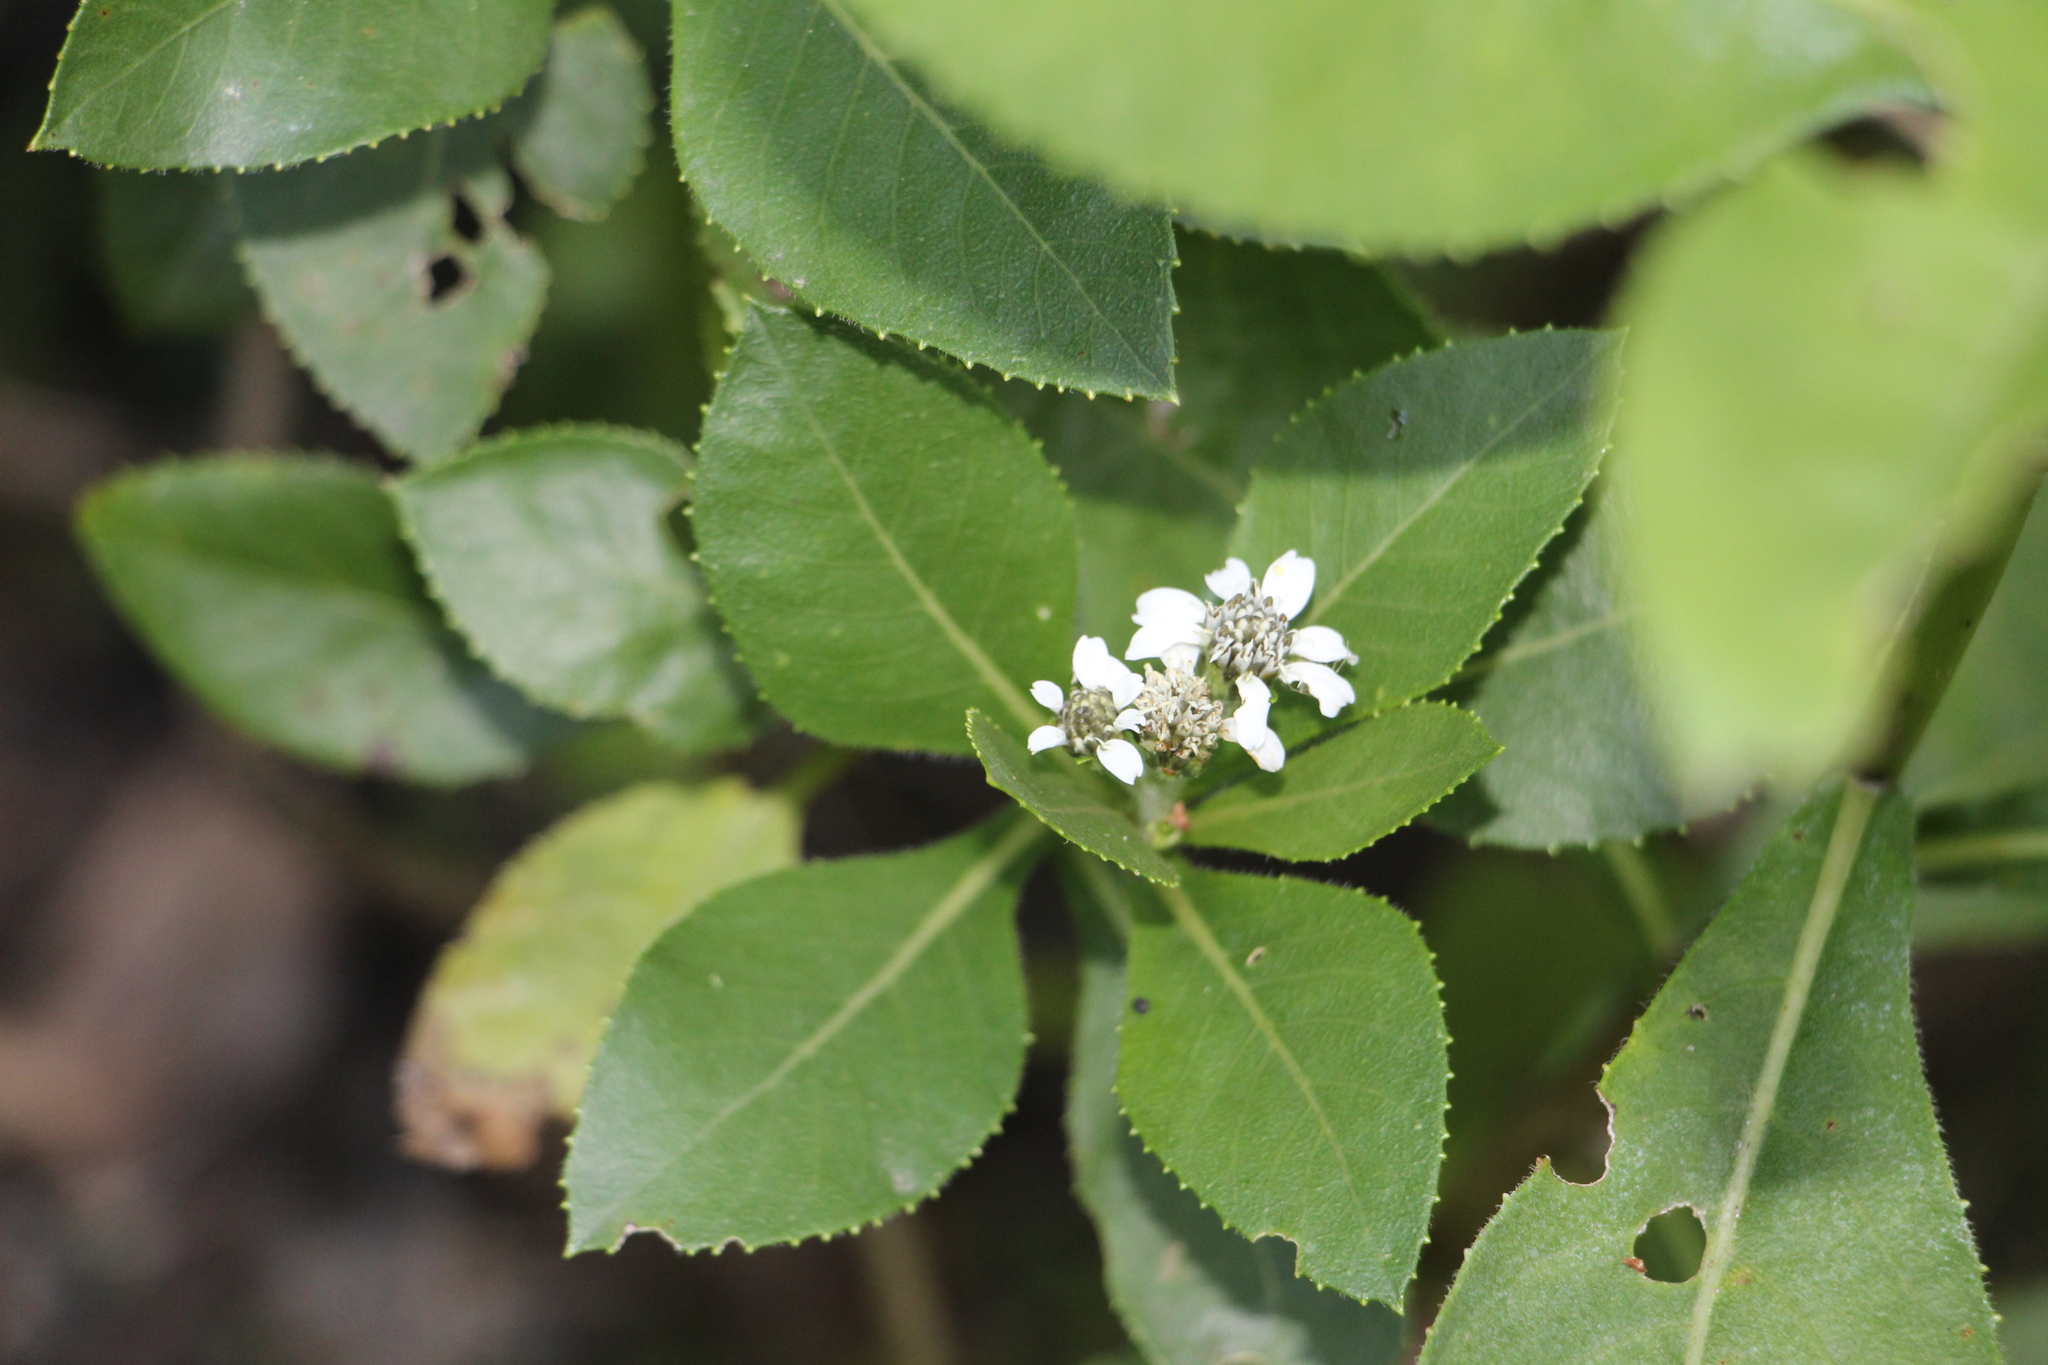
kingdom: Plantae
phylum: Tracheophyta
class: Magnoliopsida
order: Asterales
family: Asteraceae
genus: Verbesina
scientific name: Verbesina centroboyacana
